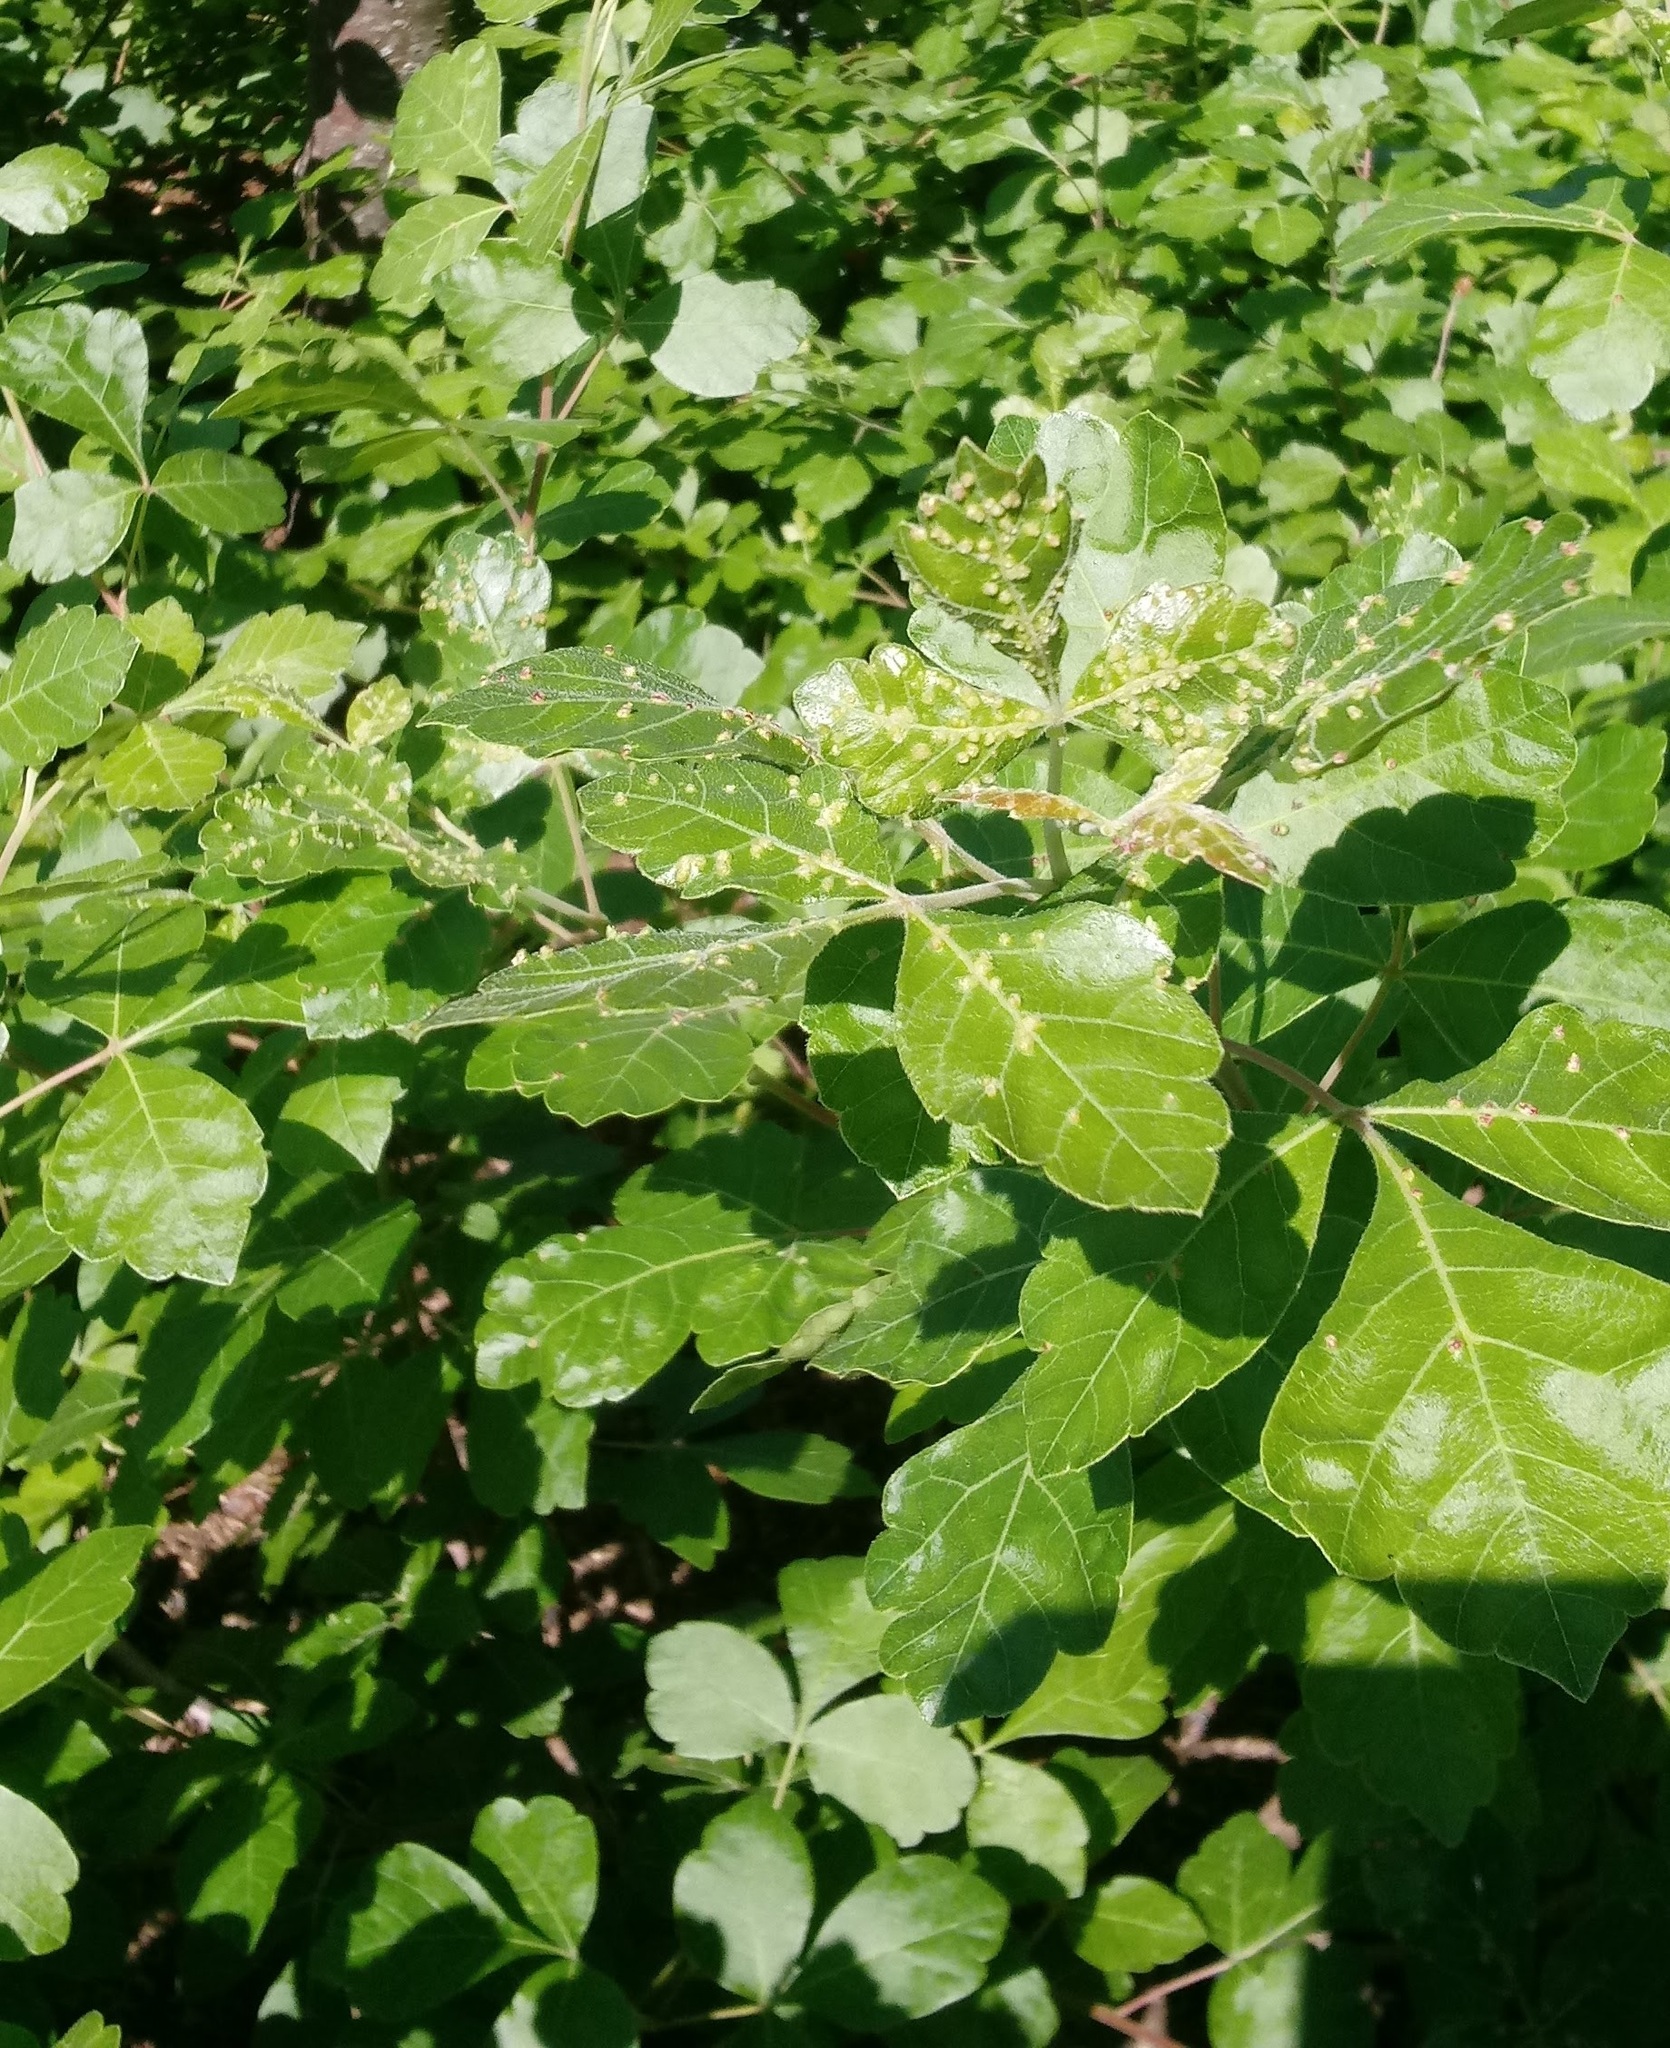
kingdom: Animalia
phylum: Arthropoda
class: Arachnida
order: Trombidiformes
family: Eriophyidae
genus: Aculops
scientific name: Aculops
